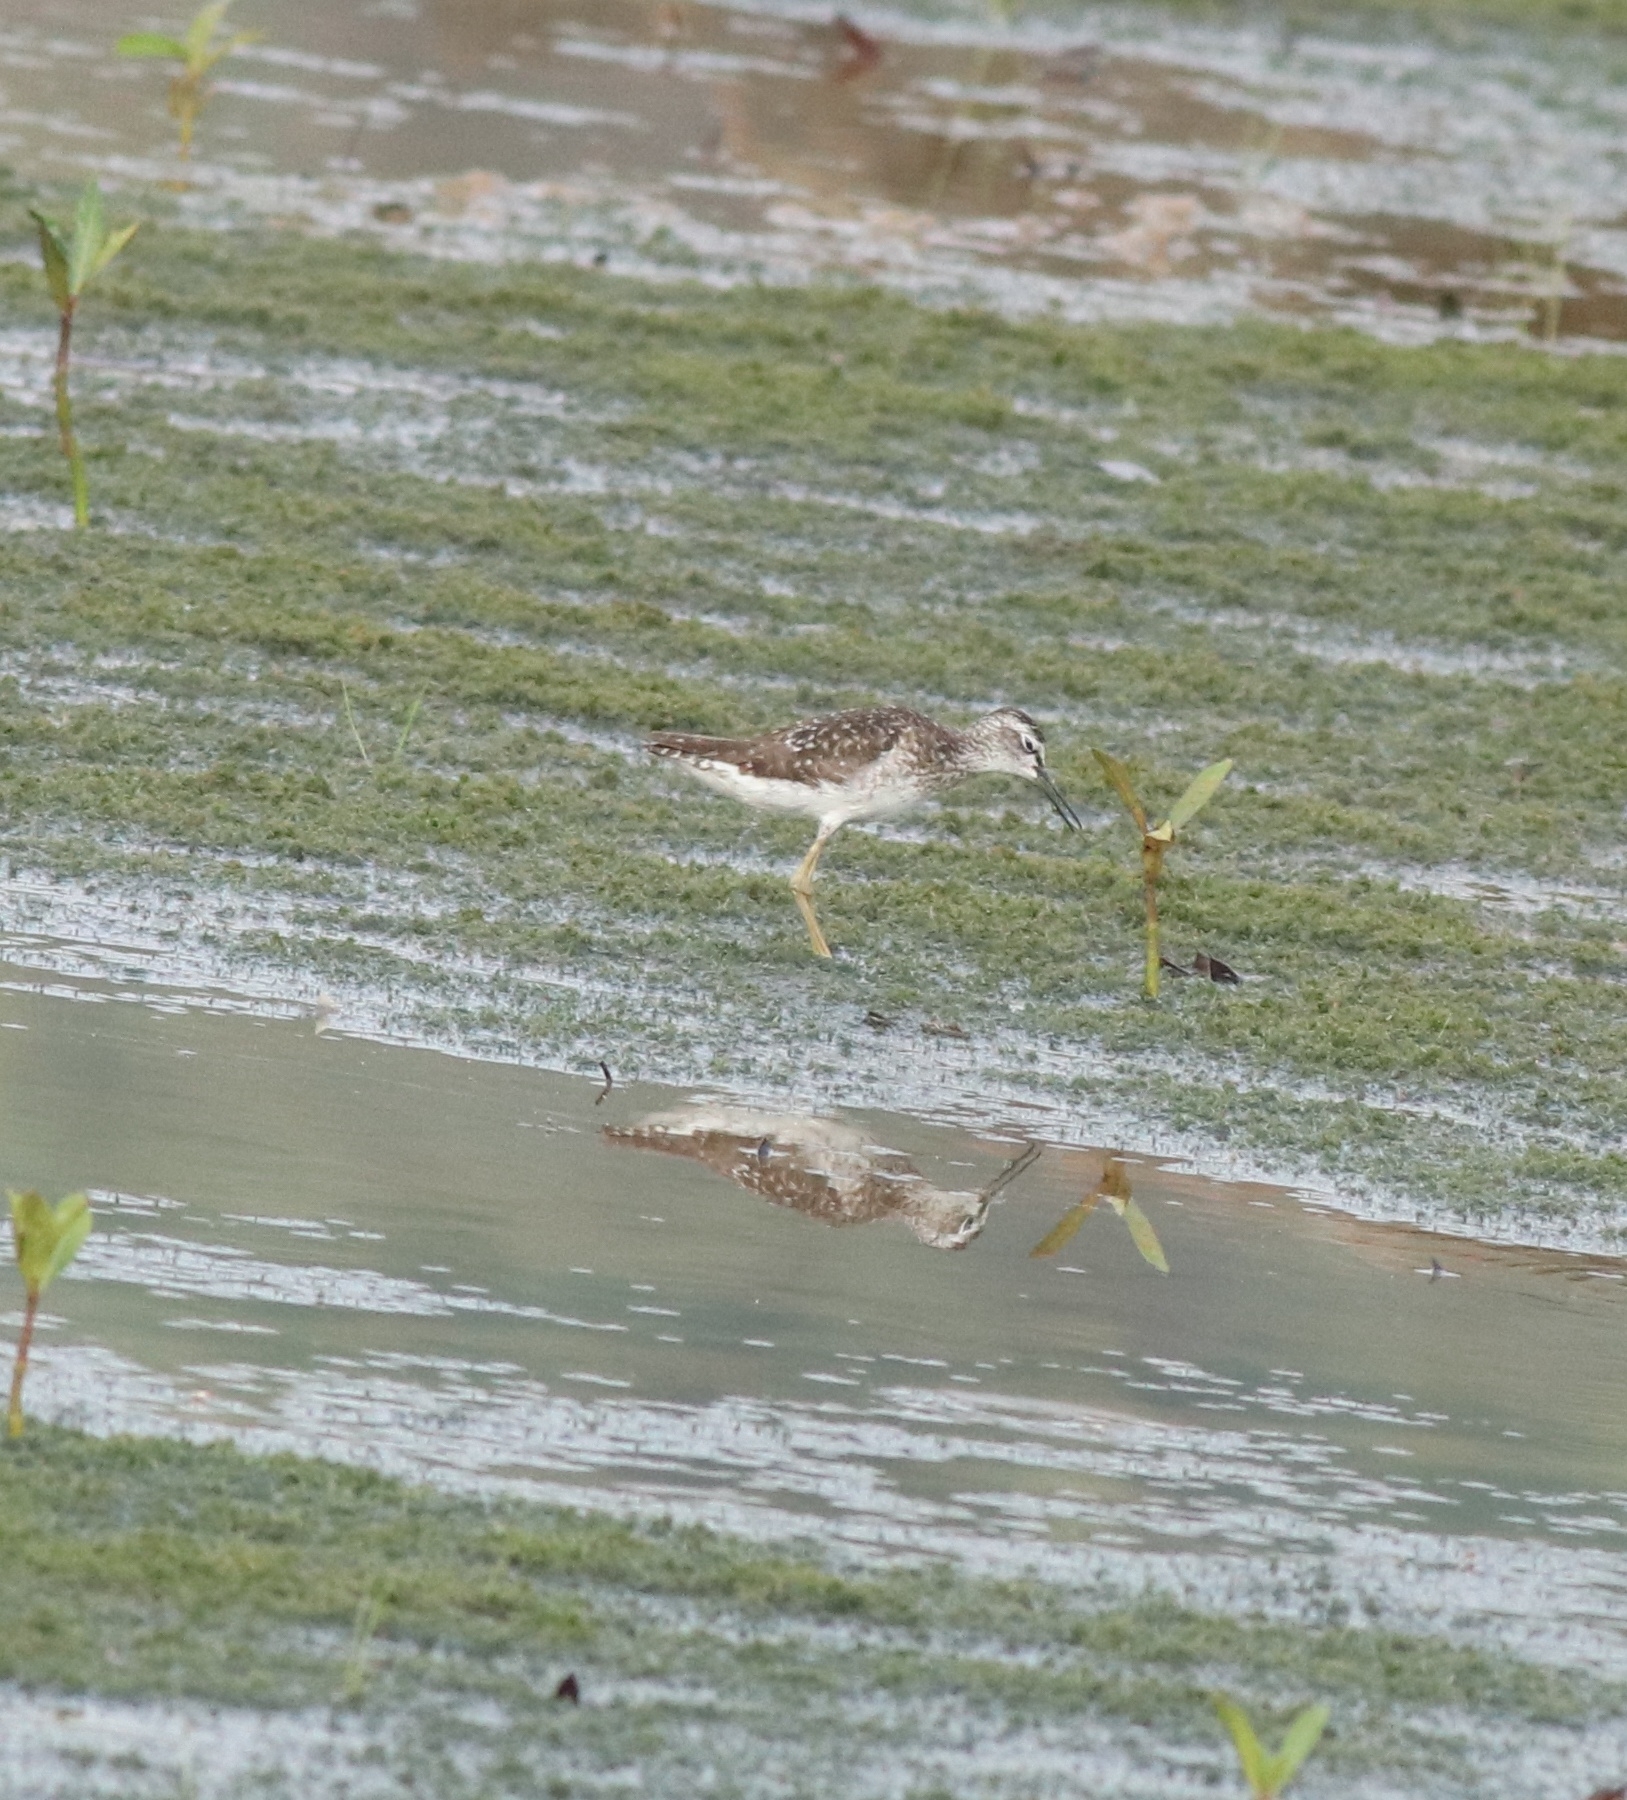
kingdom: Animalia
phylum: Chordata
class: Aves
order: Charadriiformes
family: Scolopacidae
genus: Tringa
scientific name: Tringa glareola
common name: Wood sandpiper
